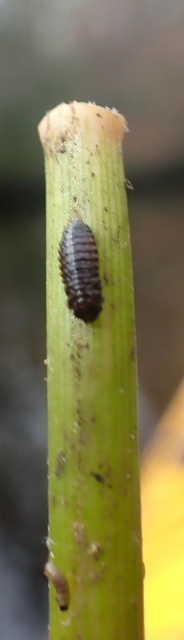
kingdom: Animalia
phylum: Arthropoda
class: Insecta
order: Coleoptera
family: Chrysomelidae
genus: Agasicles
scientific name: Agasicles hygrophila
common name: Alligatorweed flea beetle
